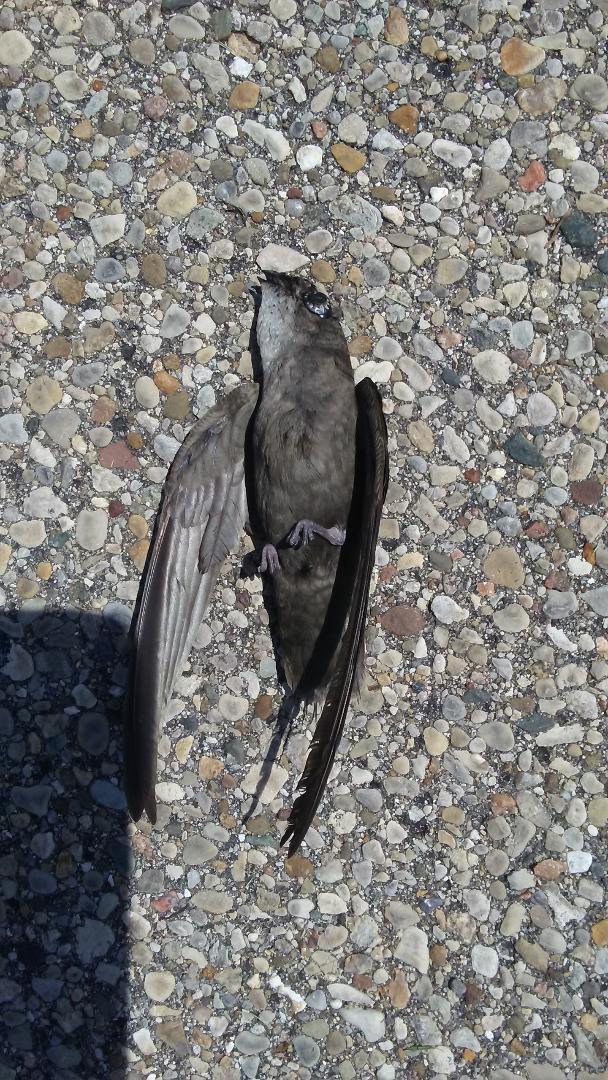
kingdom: Animalia
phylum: Chordata
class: Aves
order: Apodiformes
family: Apodidae
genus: Chaetura
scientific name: Chaetura pelagica
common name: Chimney swift
